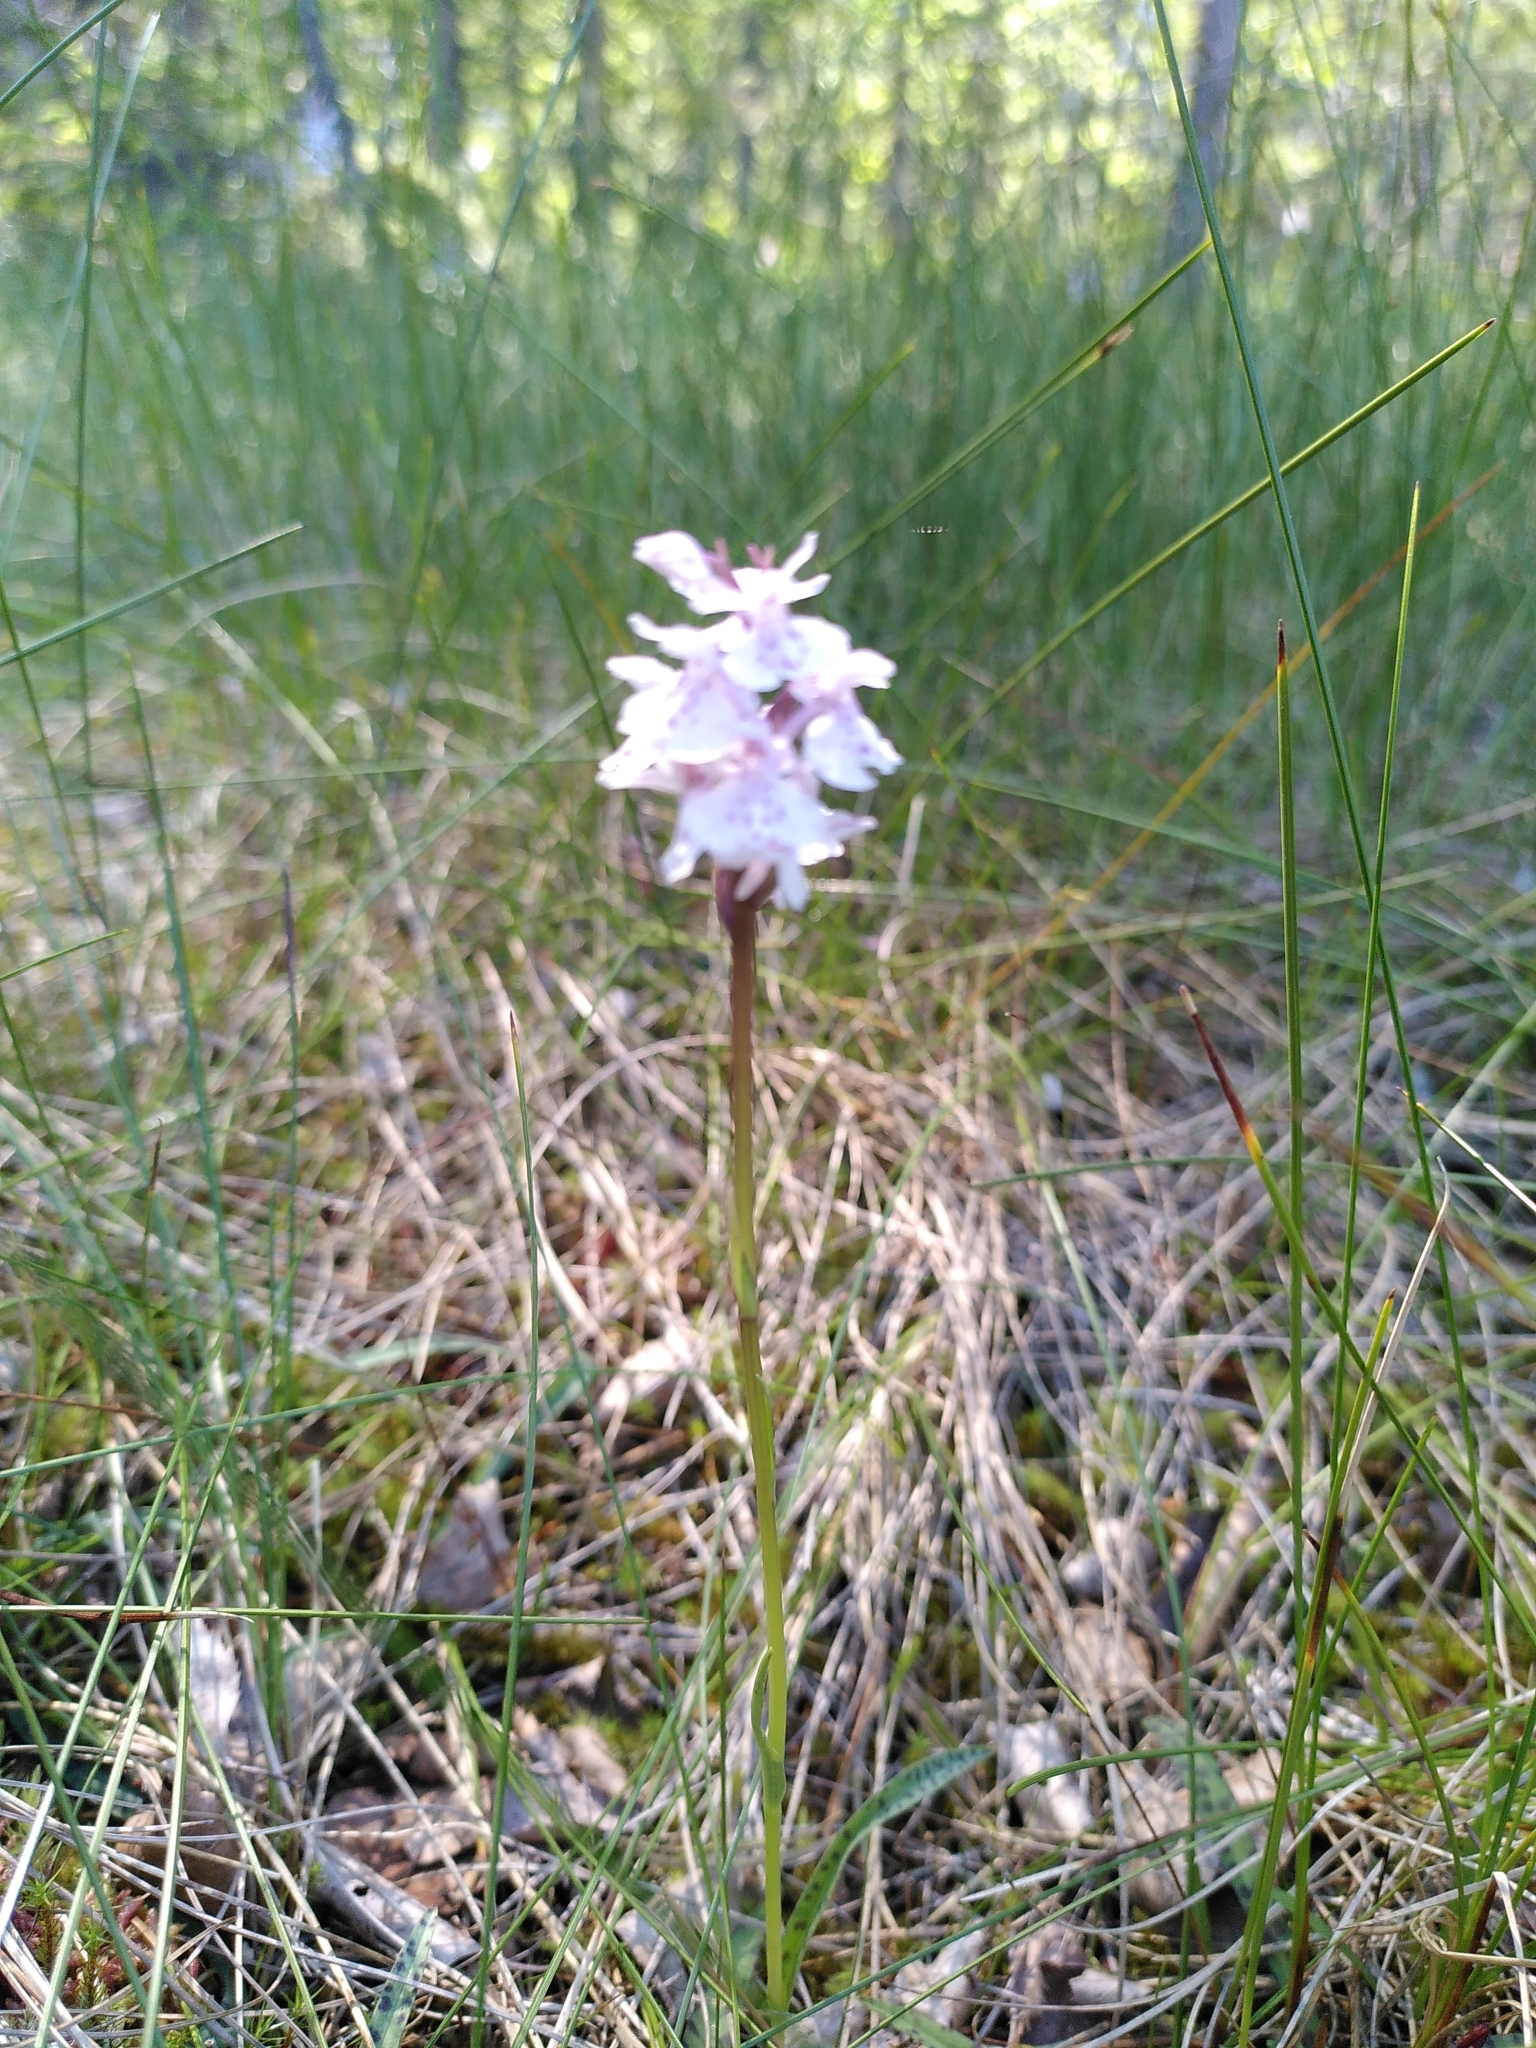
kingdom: Plantae
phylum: Tracheophyta
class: Liliopsida
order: Asparagales
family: Orchidaceae
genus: Dactylorhiza
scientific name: Dactylorhiza maculata
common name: Heath spotted-orchid
